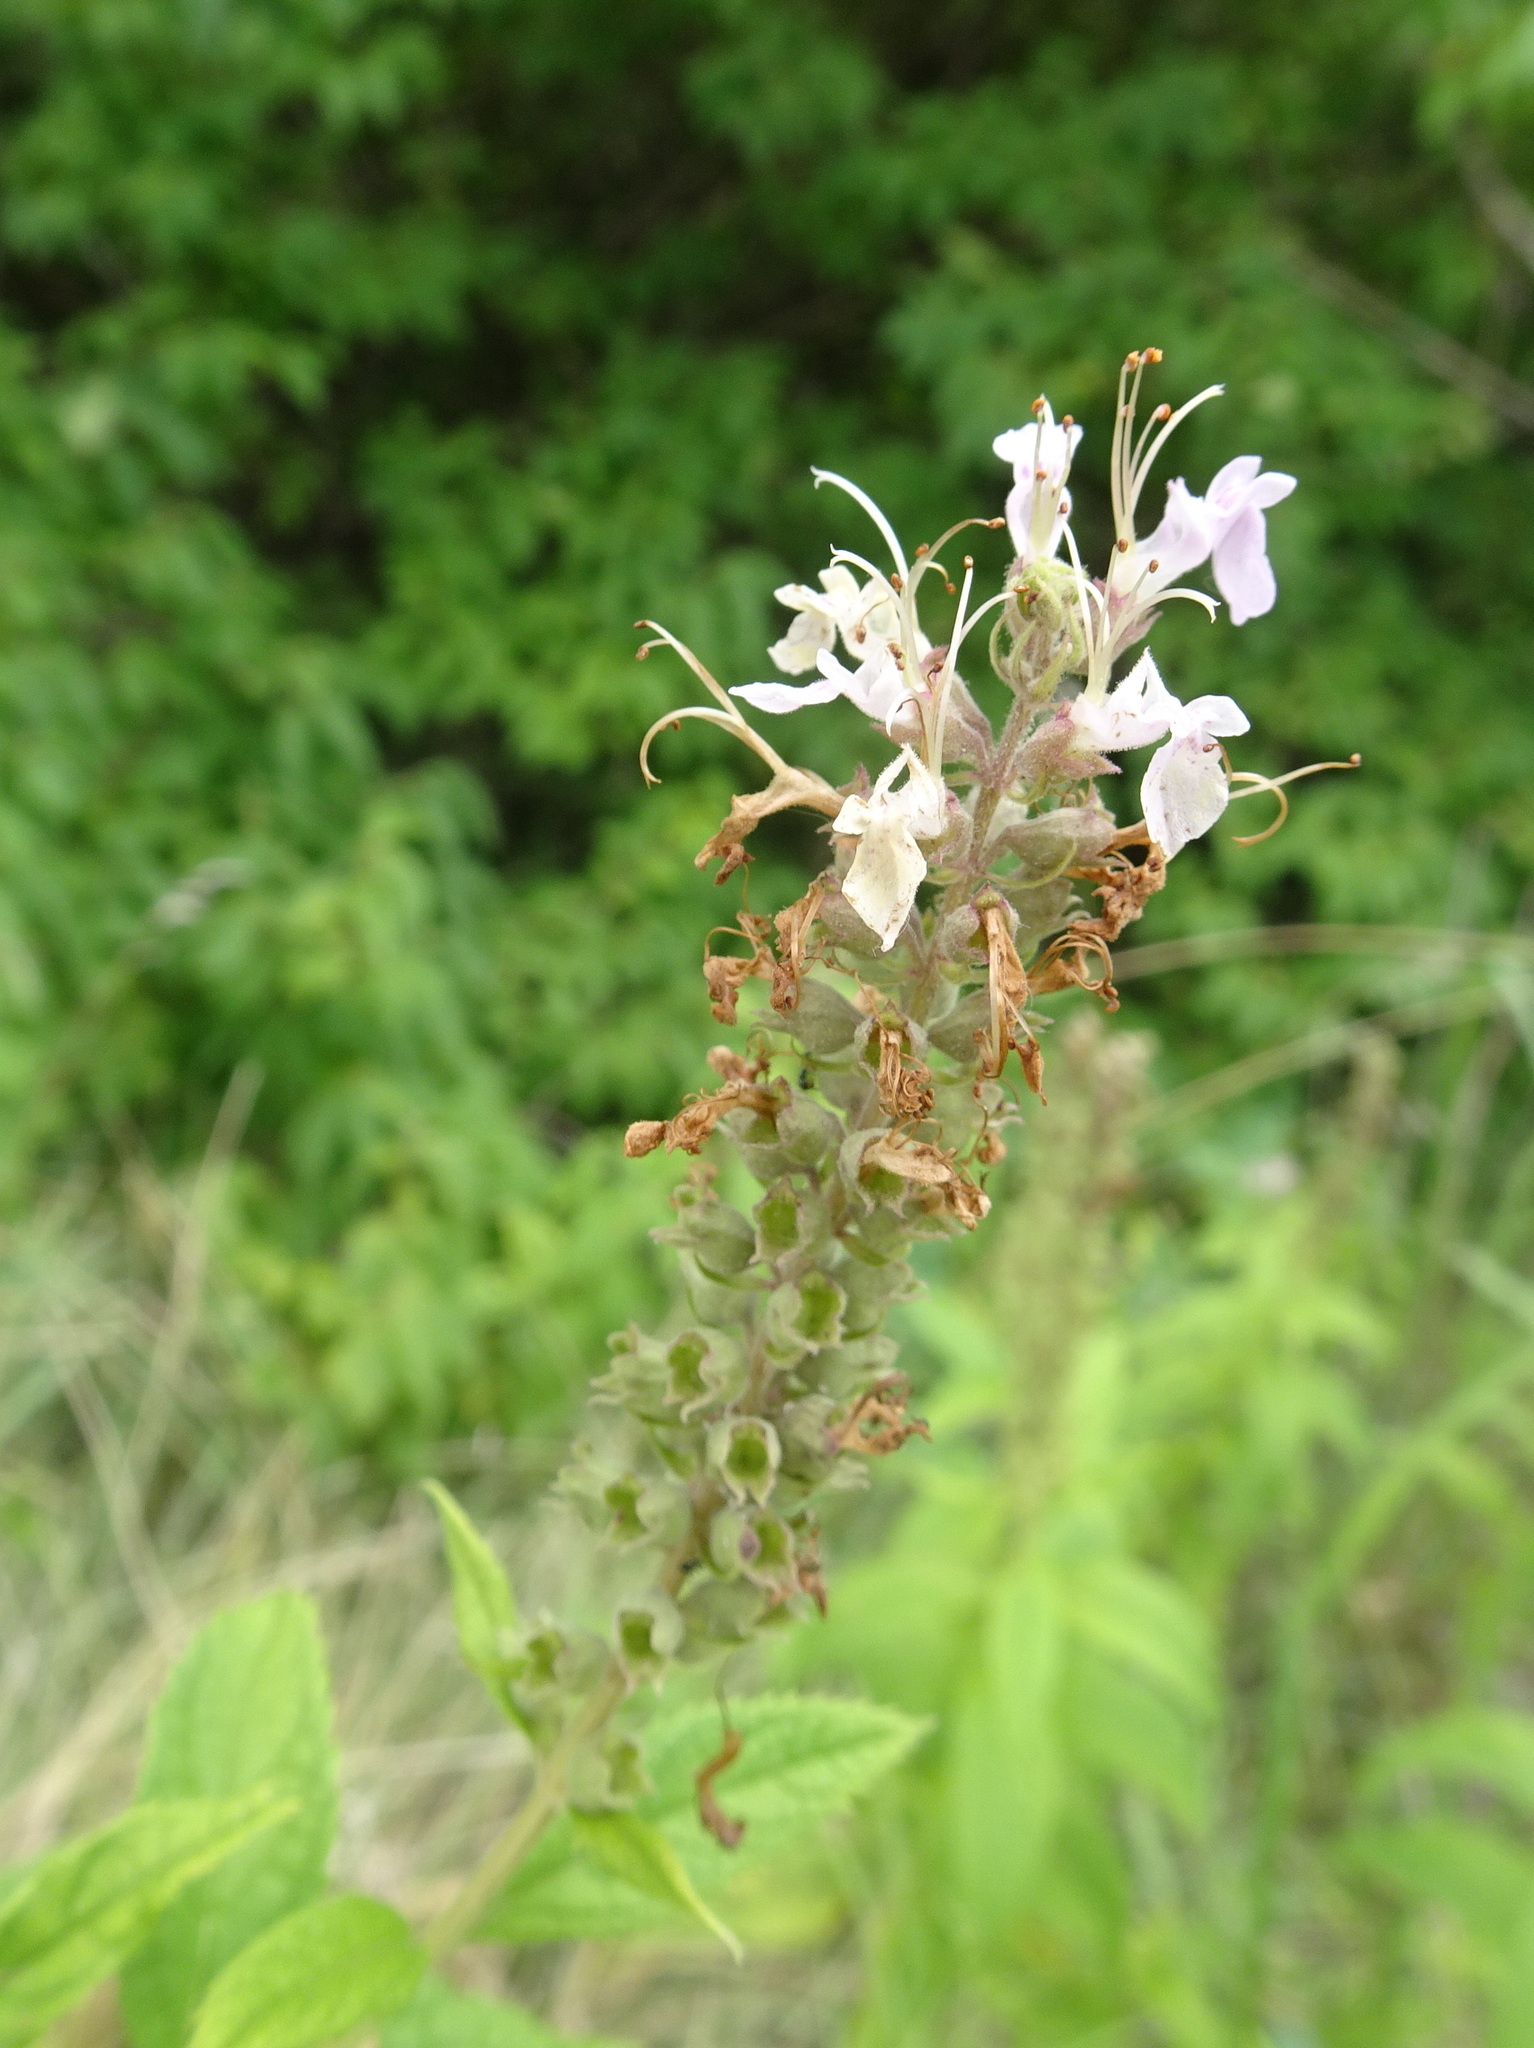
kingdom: Plantae
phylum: Tracheophyta
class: Magnoliopsida
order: Lamiales
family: Lamiaceae
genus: Teucrium
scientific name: Teucrium canadense
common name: American germander
